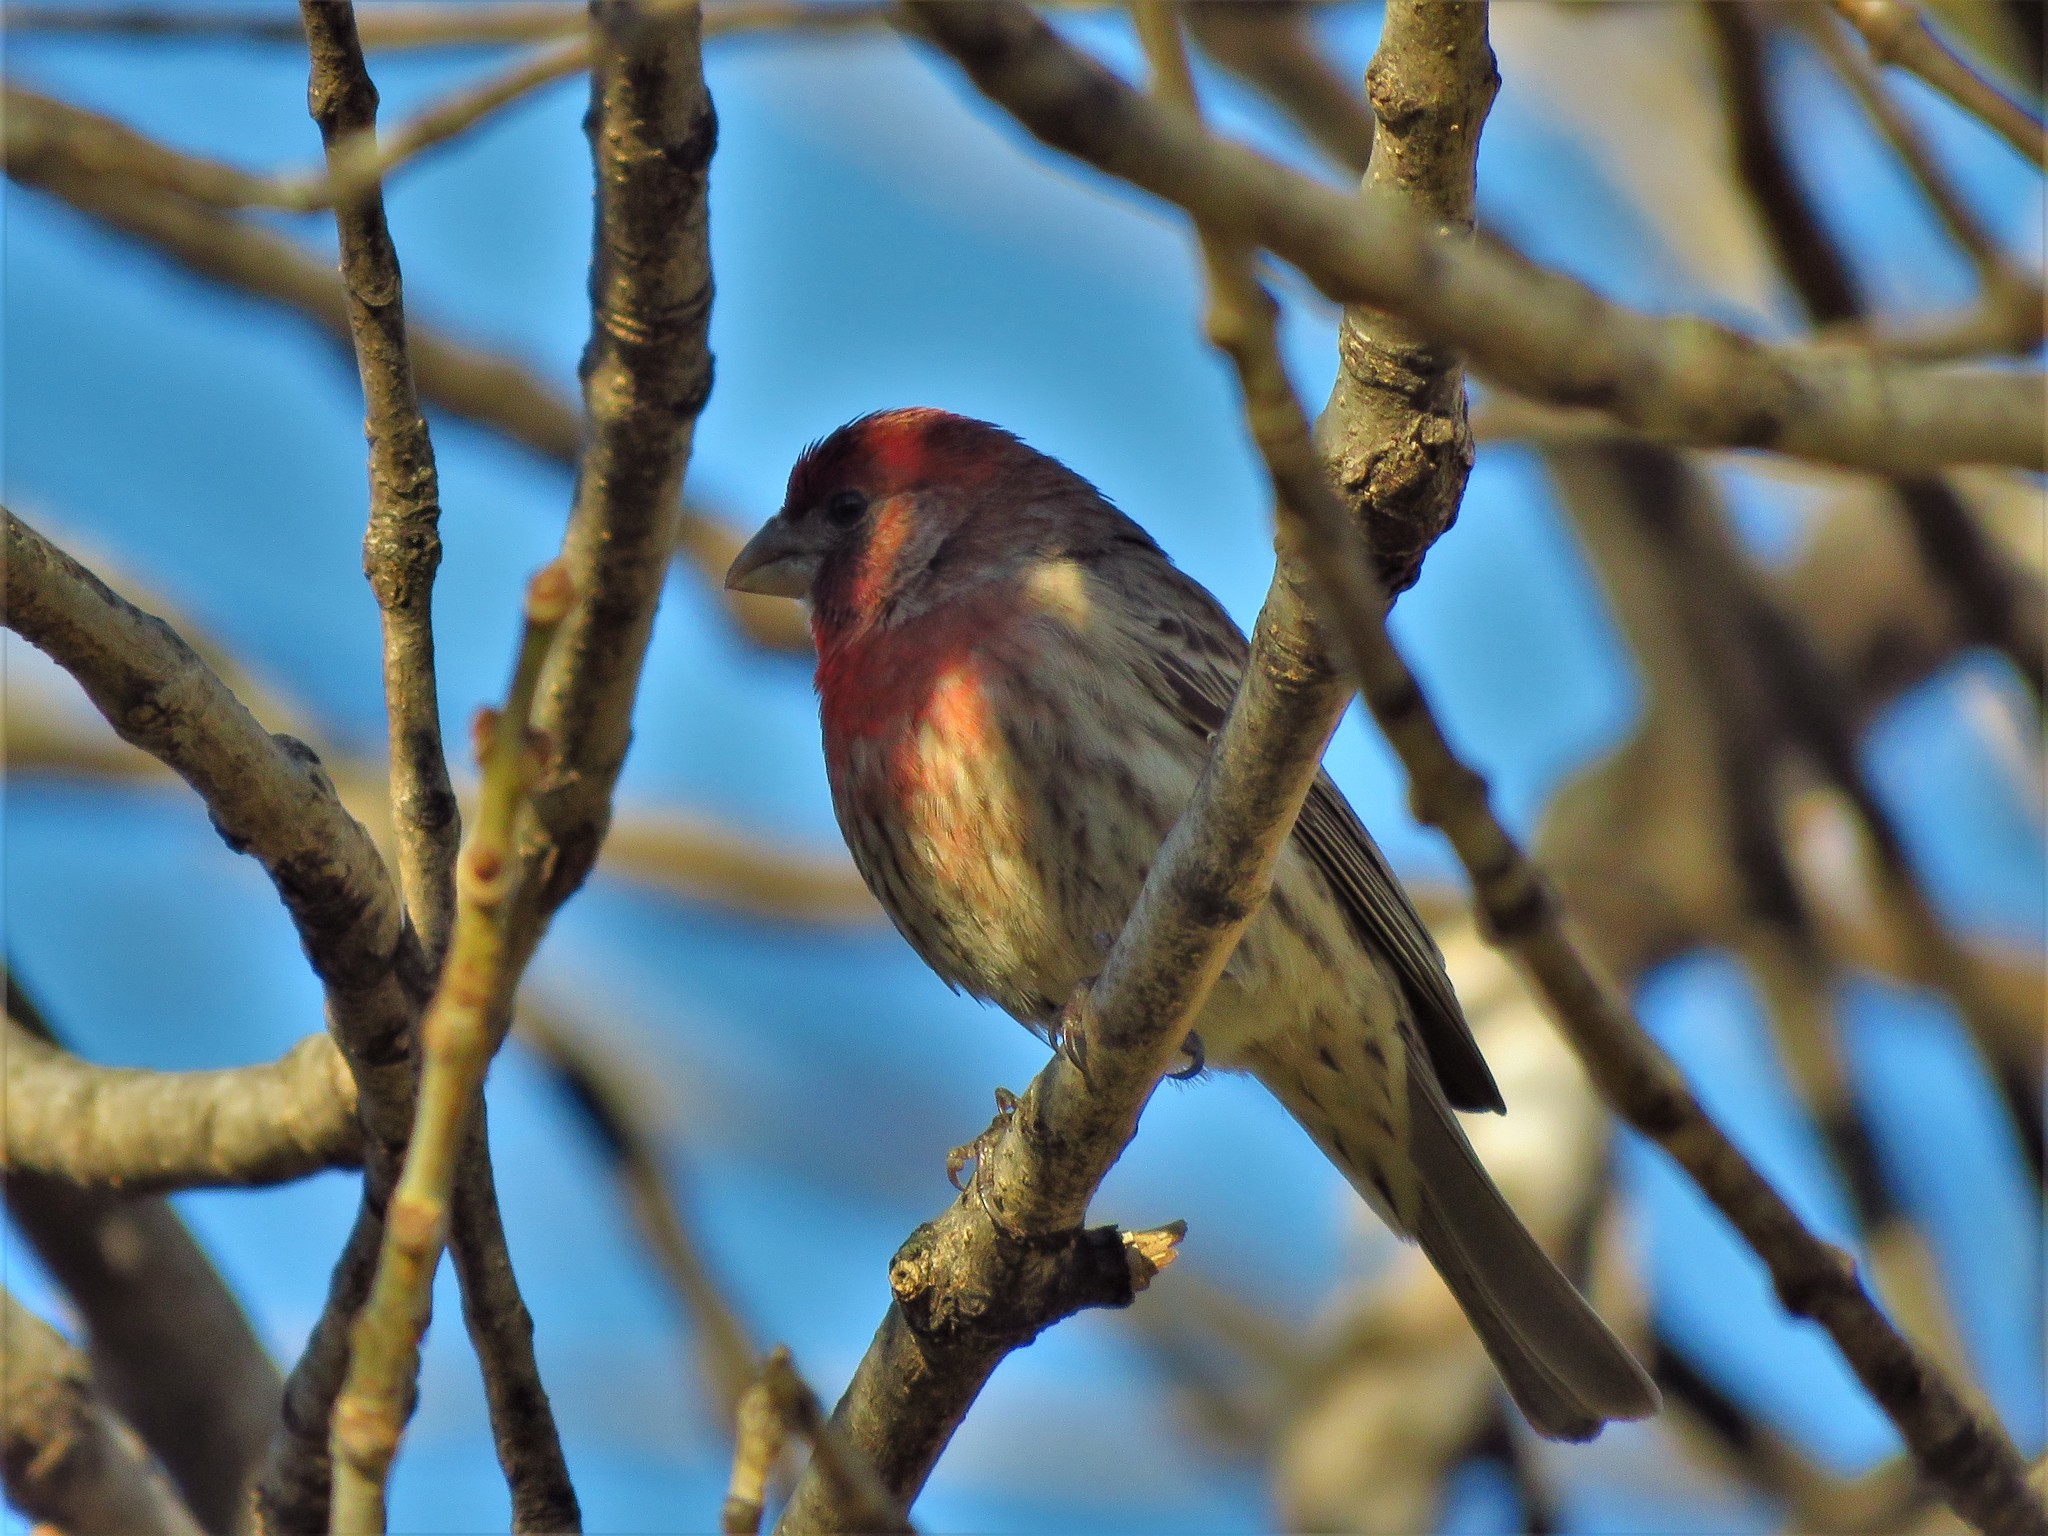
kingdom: Animalia
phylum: Chordata
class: Aves
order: Passeriformes
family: Fringillidae
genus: Haemorhous
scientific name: Haemorhous mexicanus
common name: House finch
